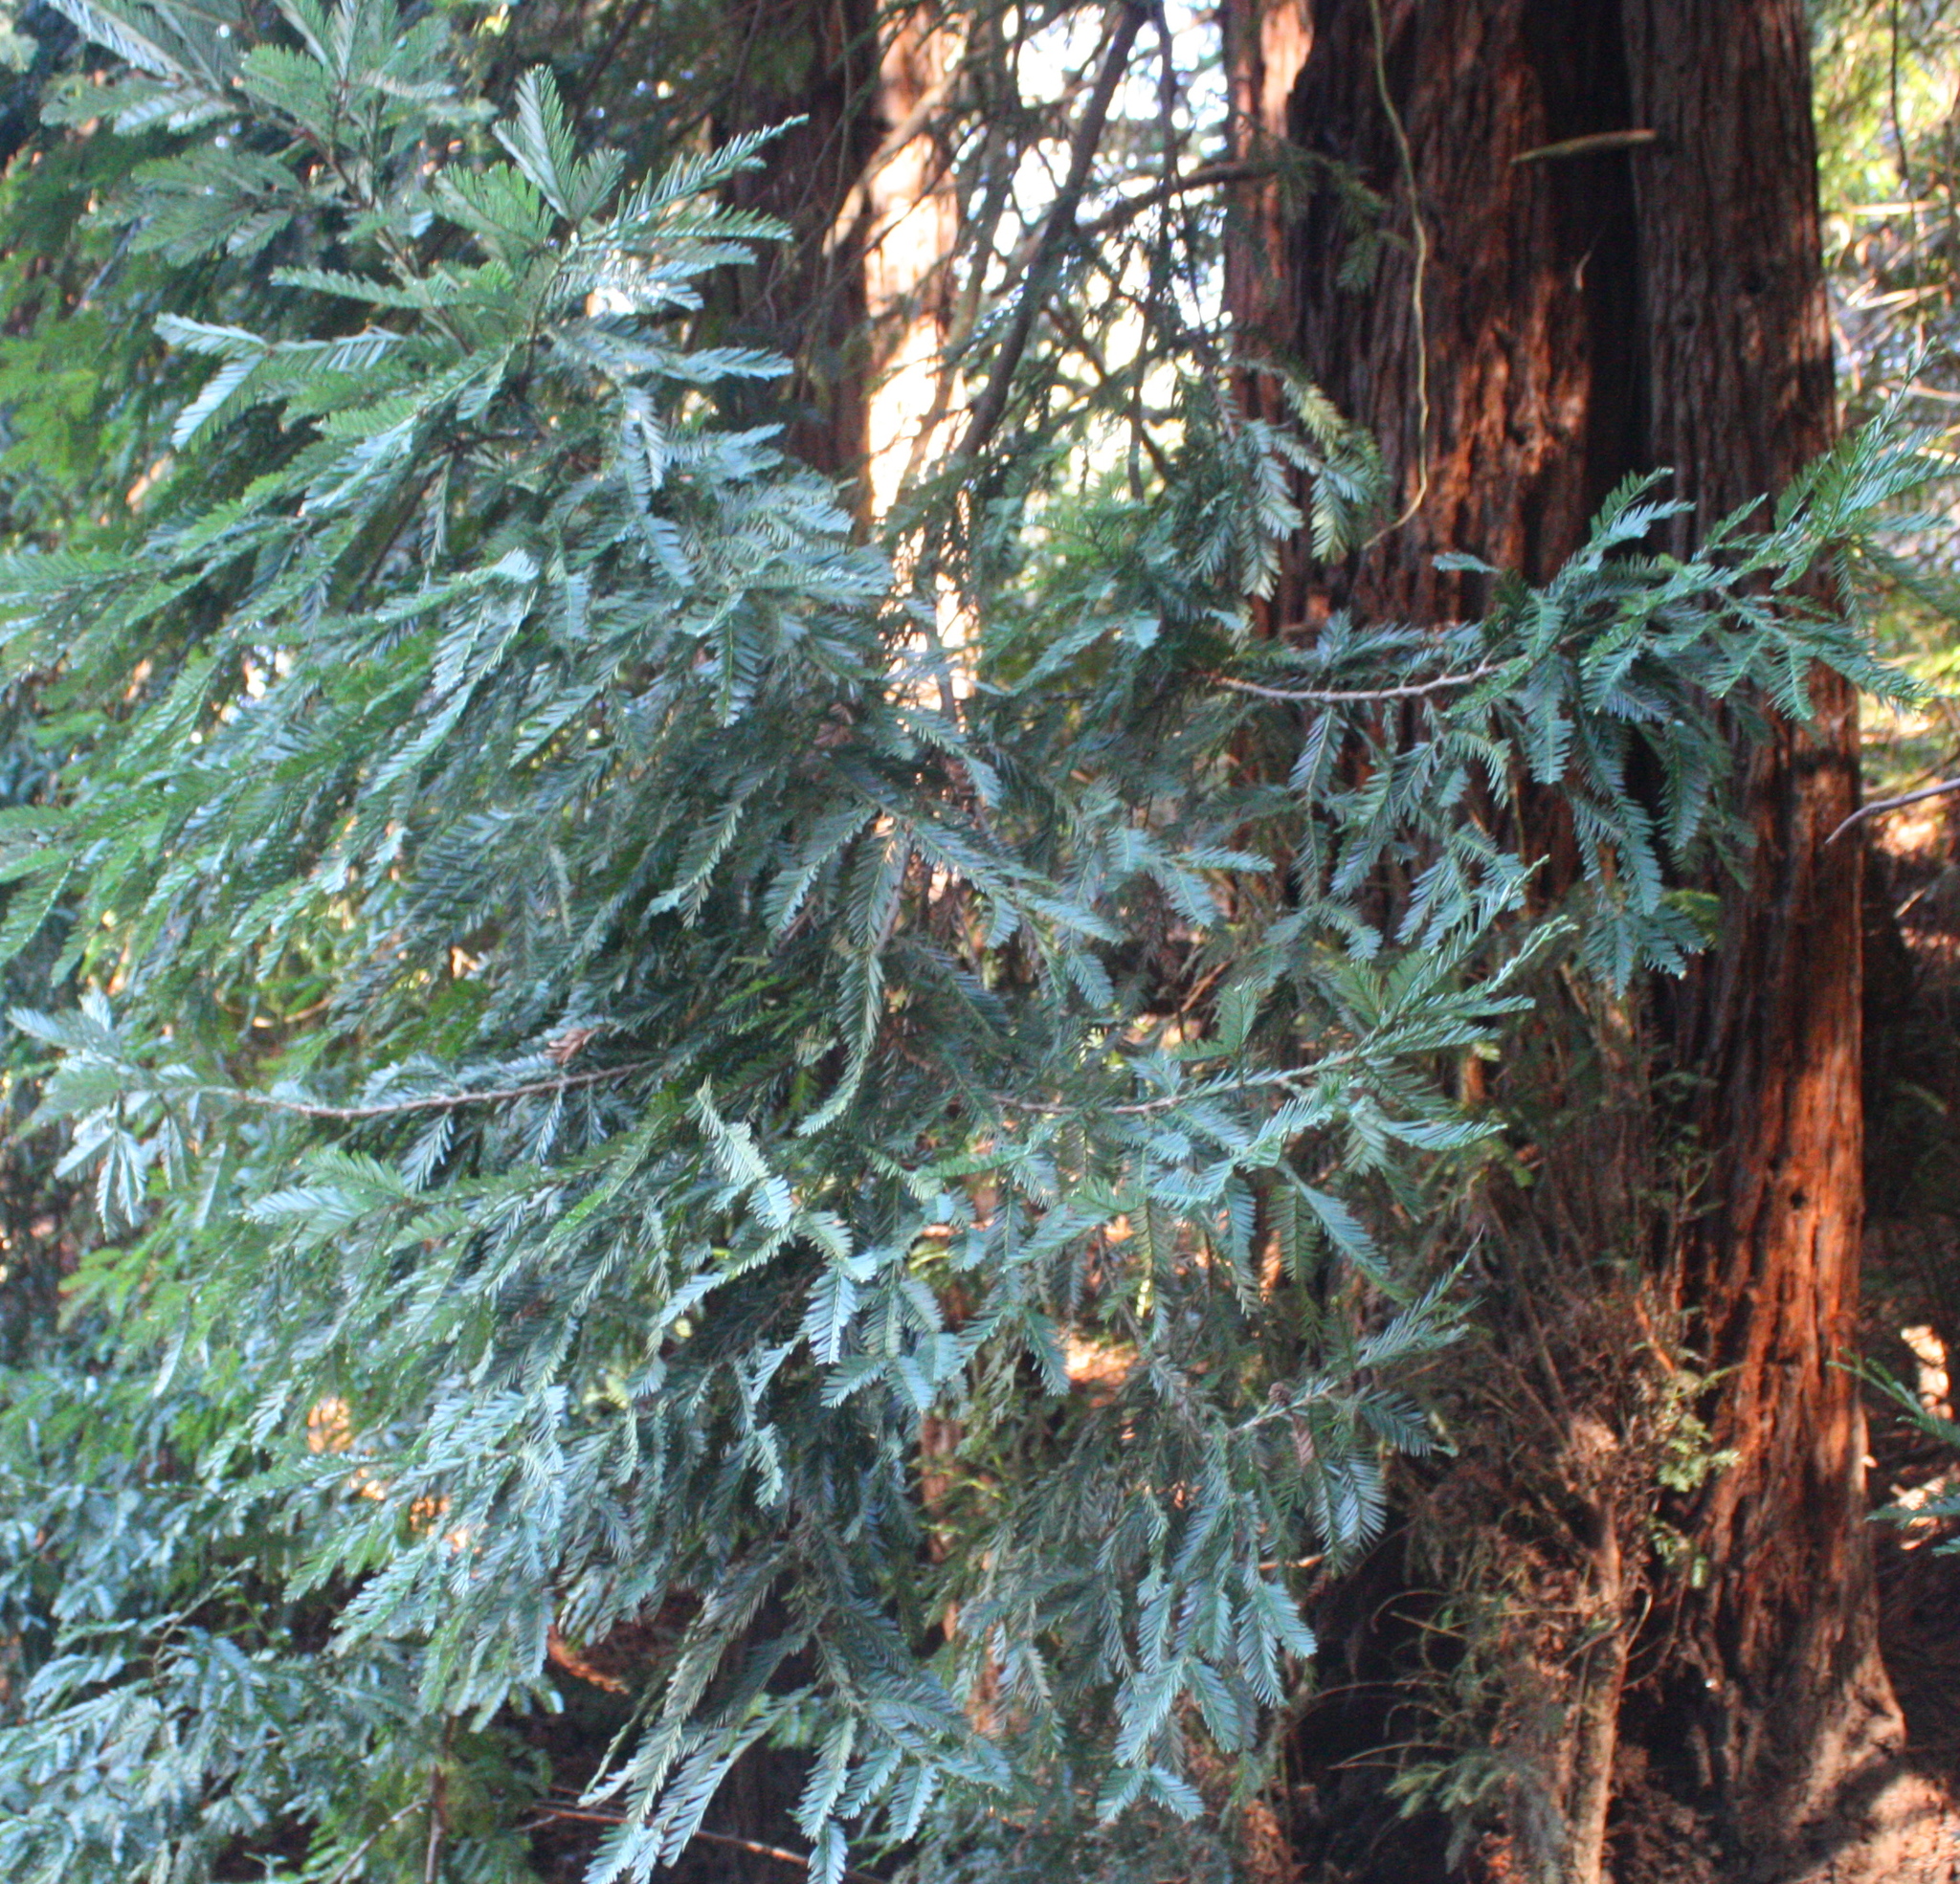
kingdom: Plantae
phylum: Tracheophyta
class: Pinopsida
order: Pinales
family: Cupressaceae
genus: Sequoia
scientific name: Sequoia sempervirens
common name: Coast redwood
